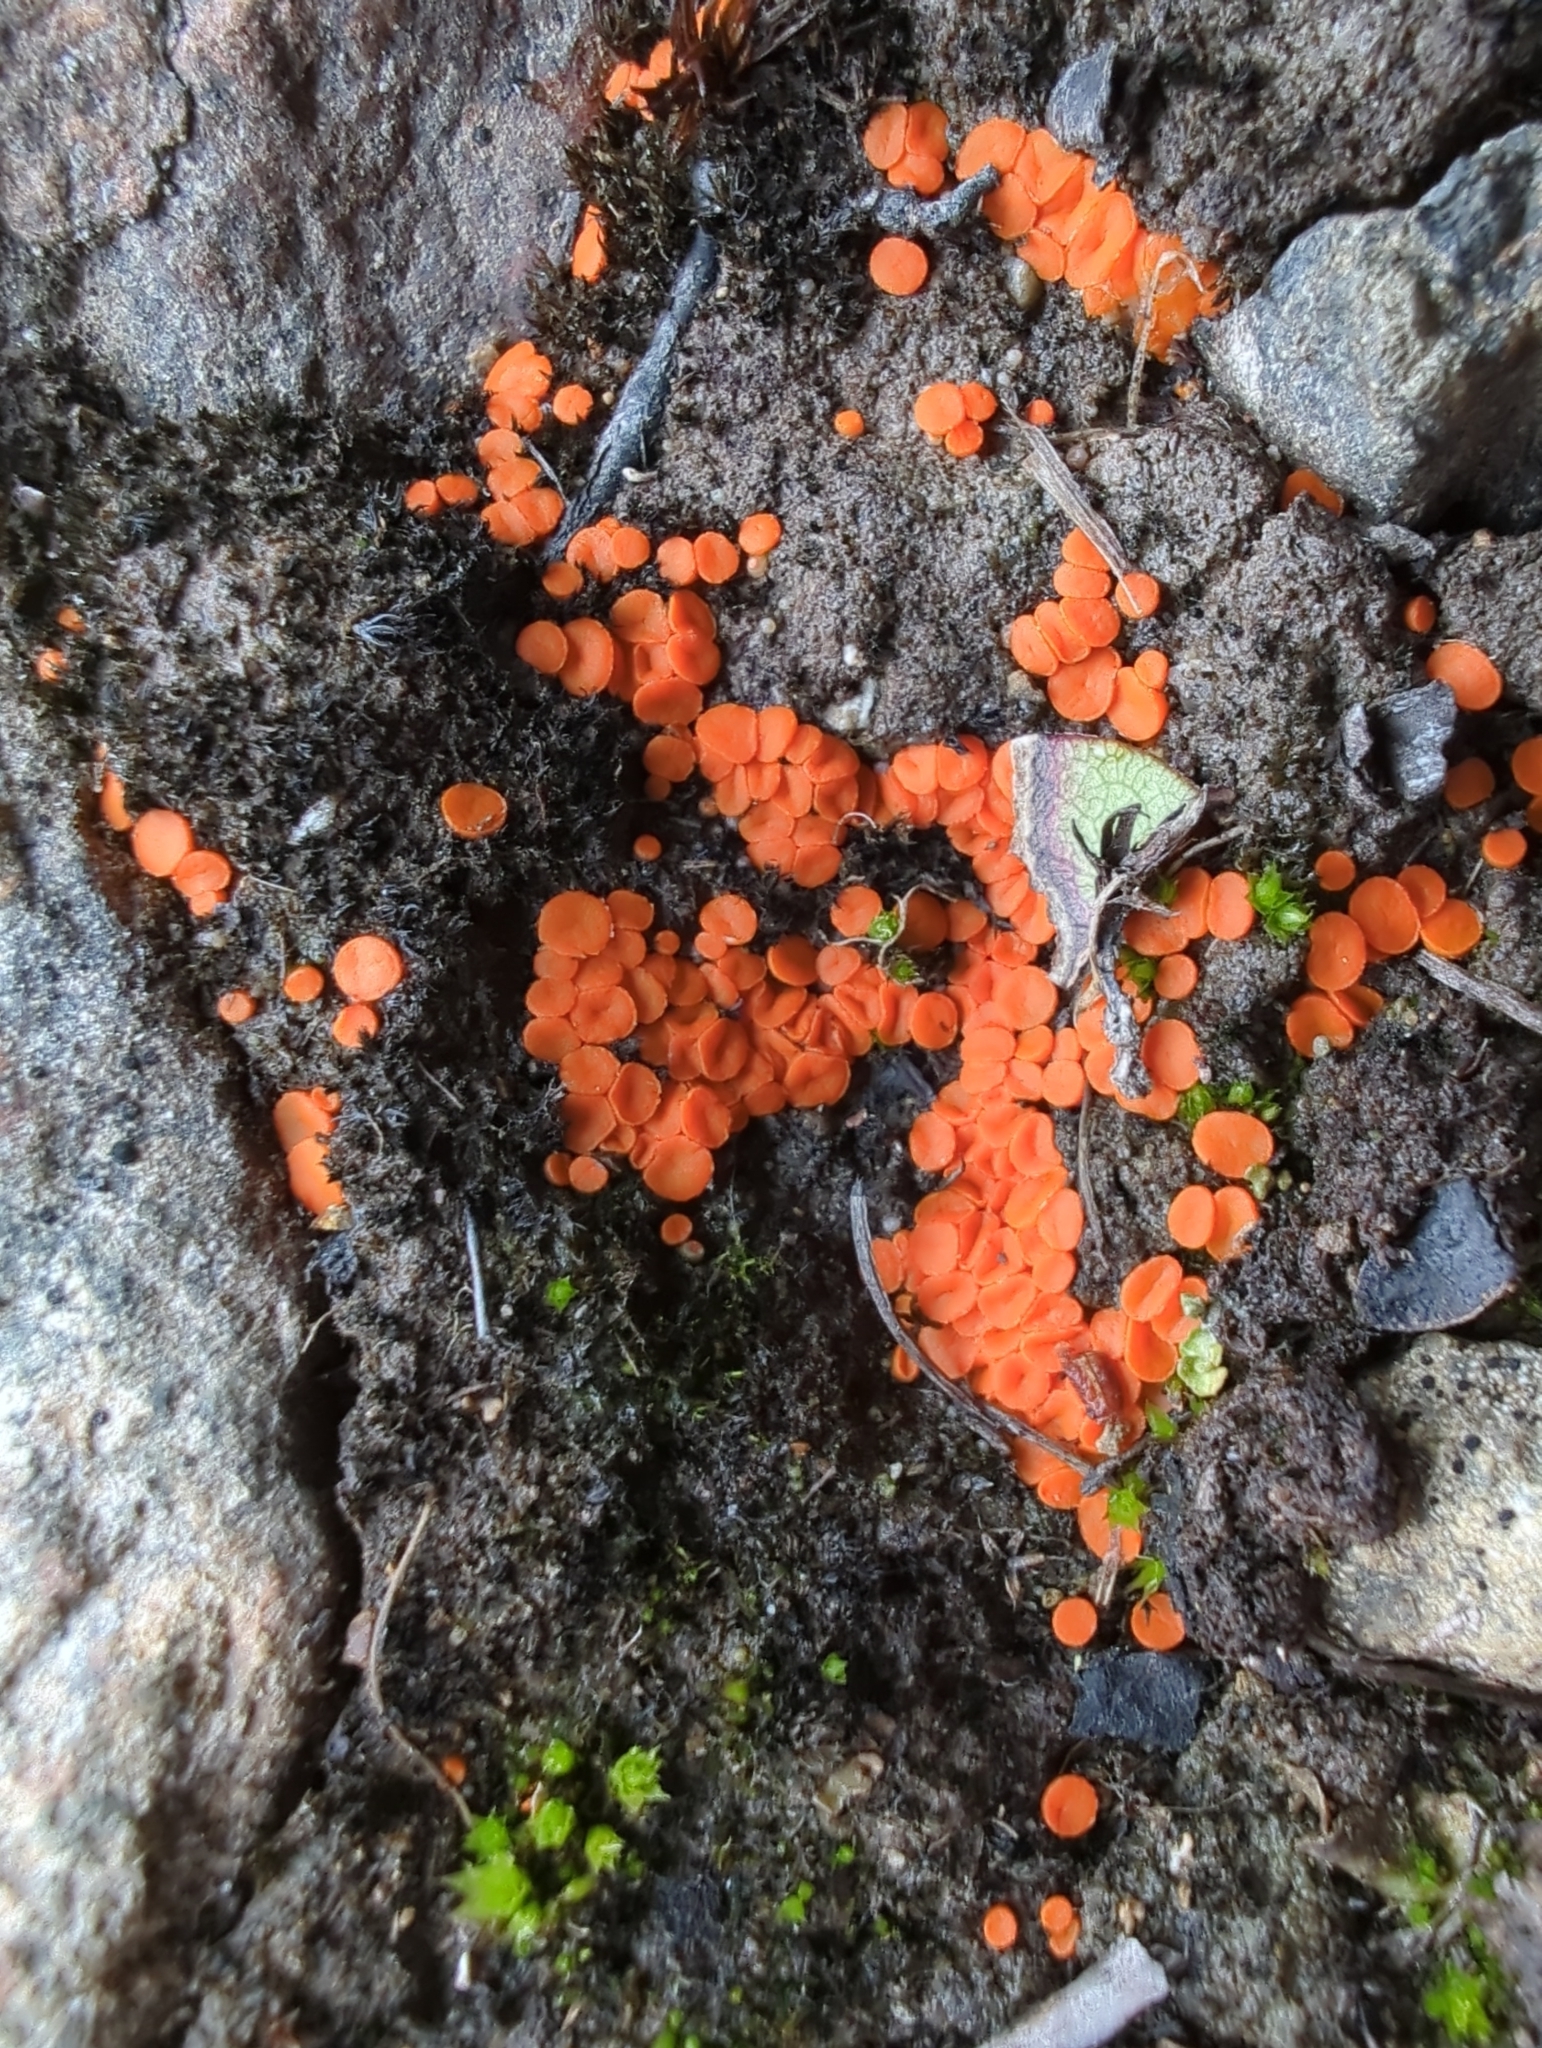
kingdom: Fungi
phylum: Ascomycota
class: Pezizomycetes
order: Pezizales
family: Pyronemataceae
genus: Byssonectria
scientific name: Byssonectria terrestris
